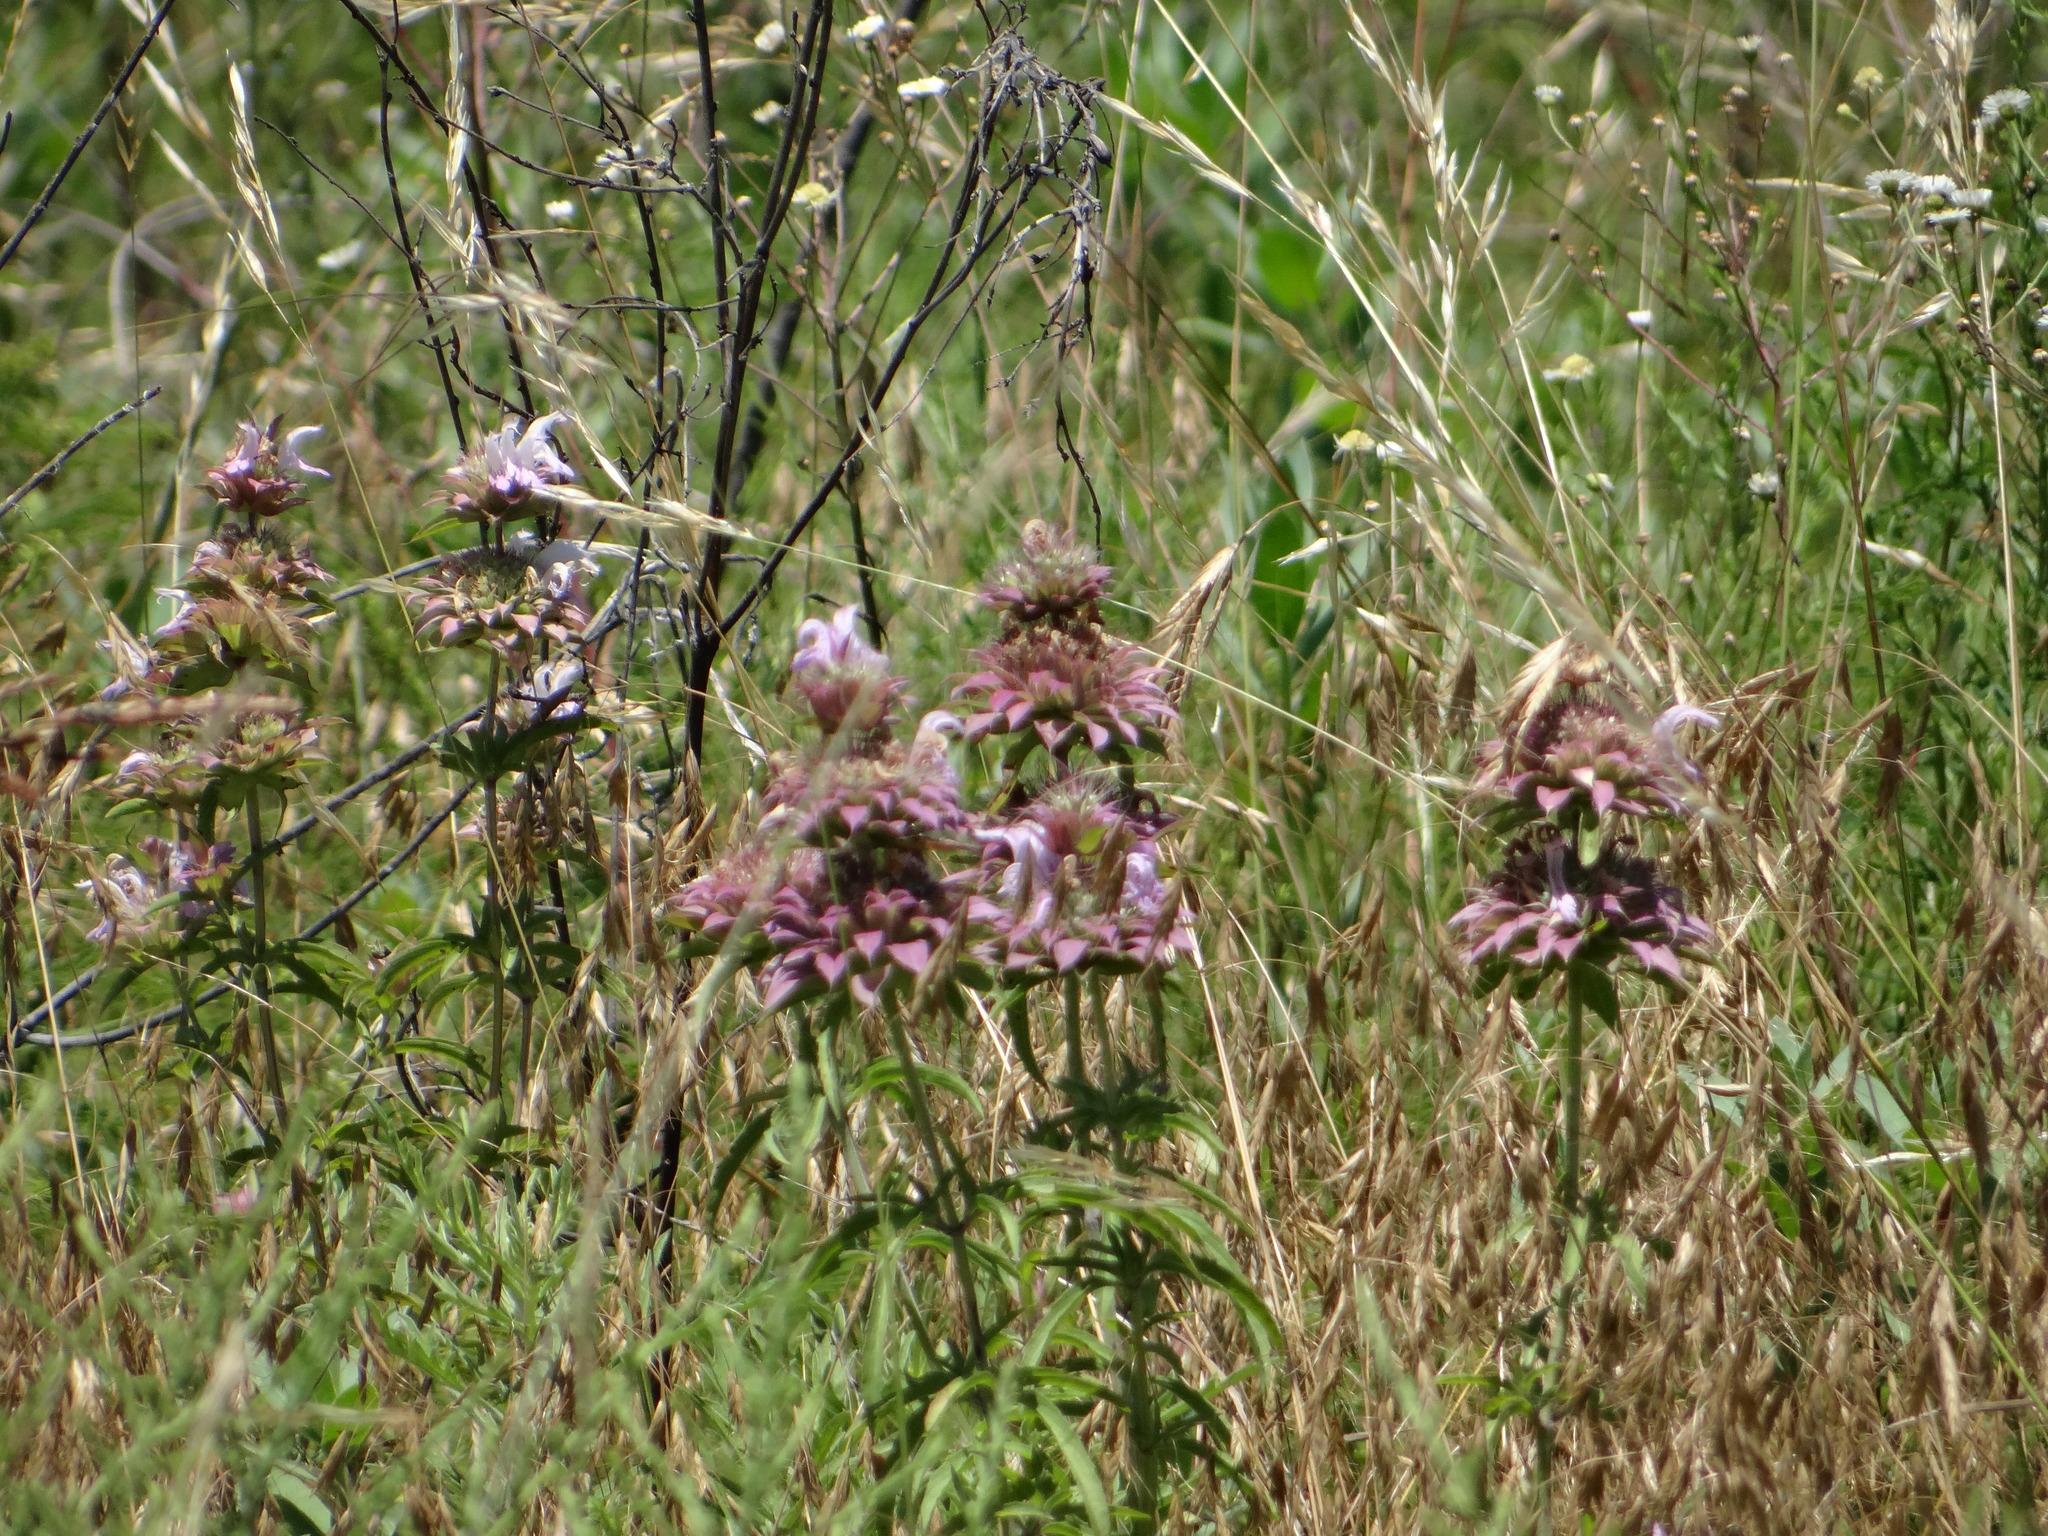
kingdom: Plantae
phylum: Tracheophyta
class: Magnoliopsida
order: Lamiales
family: Lamiaceae
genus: Monarda
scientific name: Monarda citriodora
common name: Lemon beebalm
